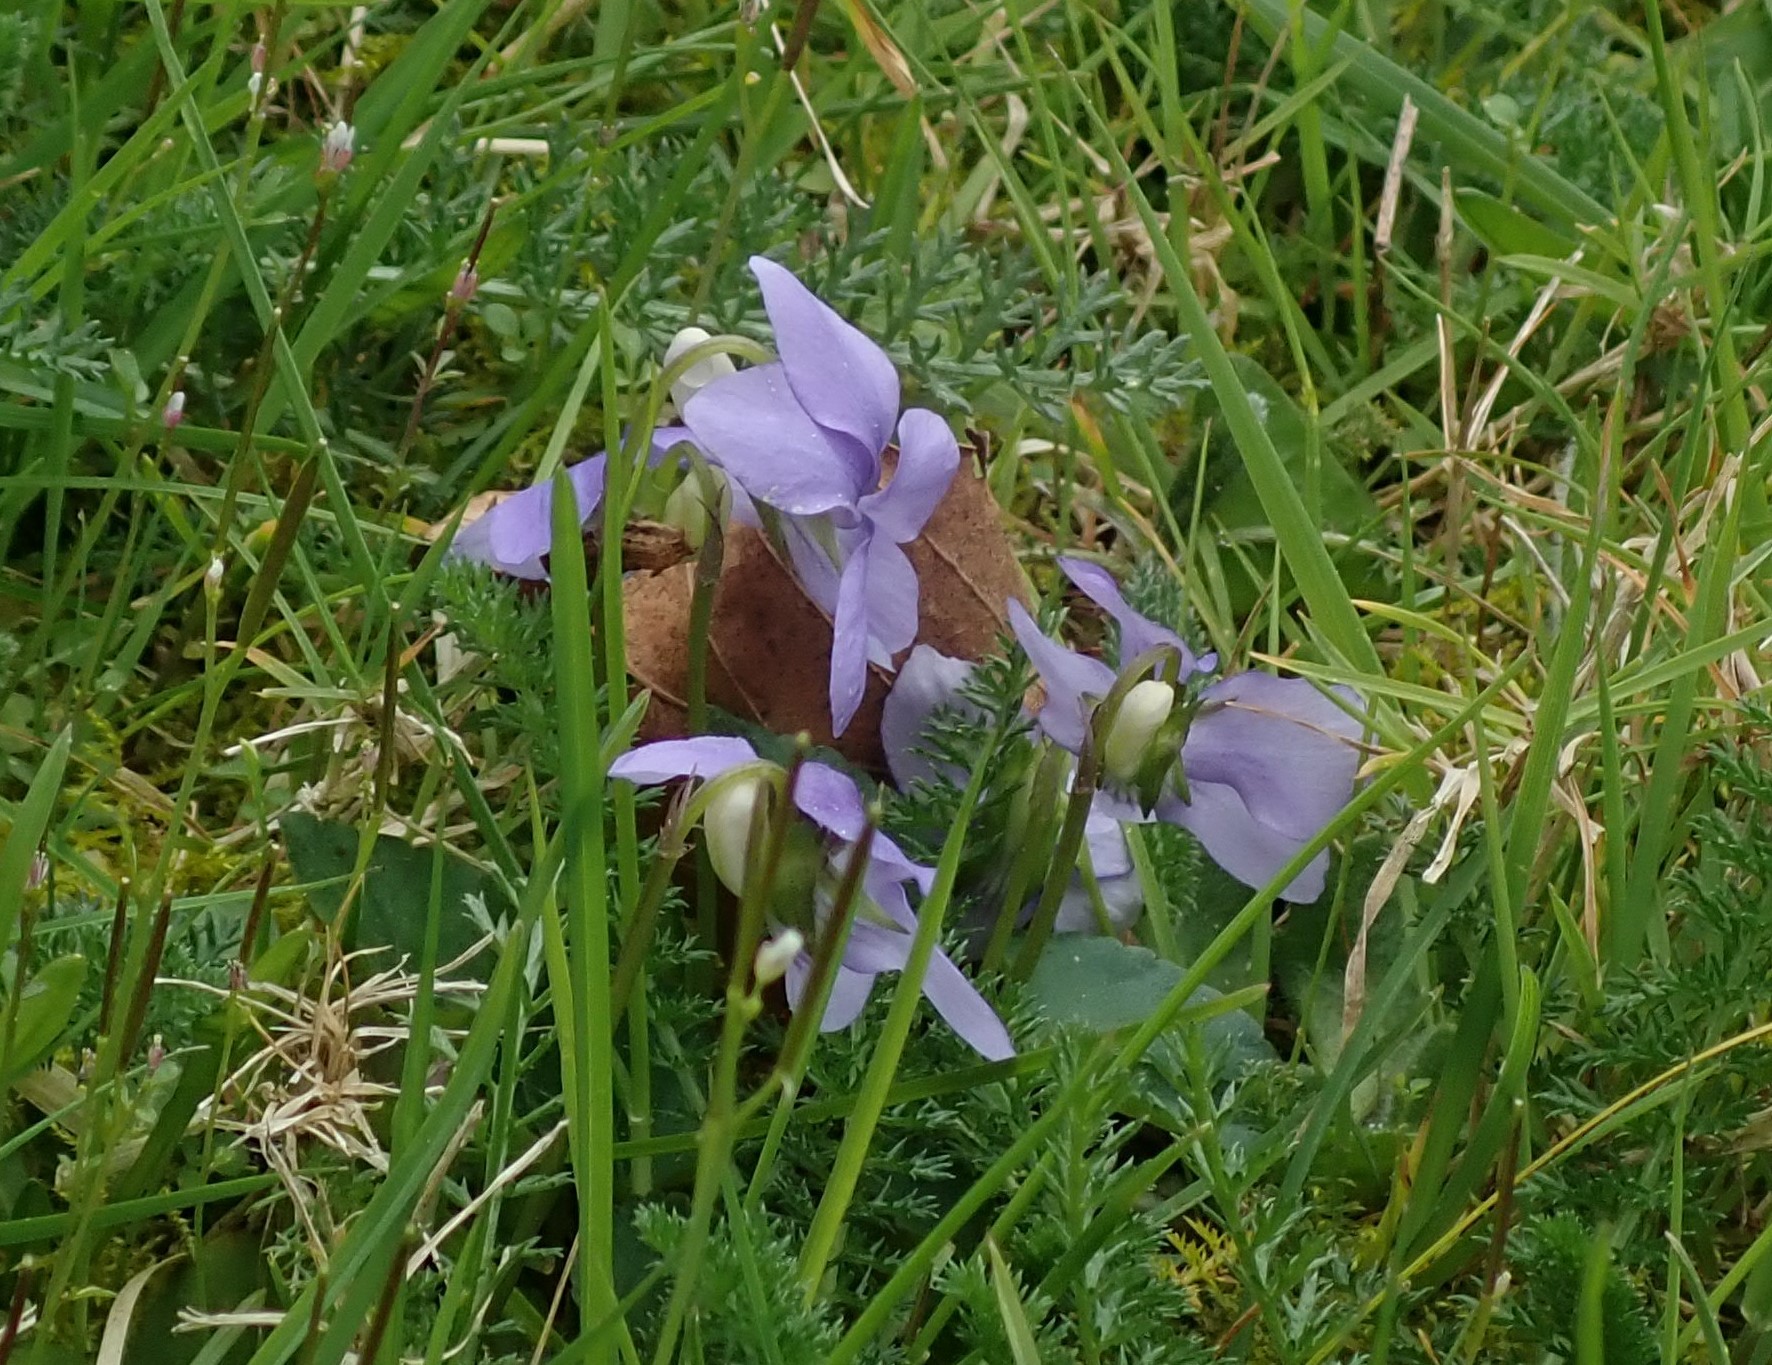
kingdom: Plantae
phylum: Tracheophyta
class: Magnoliopsida
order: Malpighiales
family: Violaceae
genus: Viola
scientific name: Viola riviniana
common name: Common dog-violet
